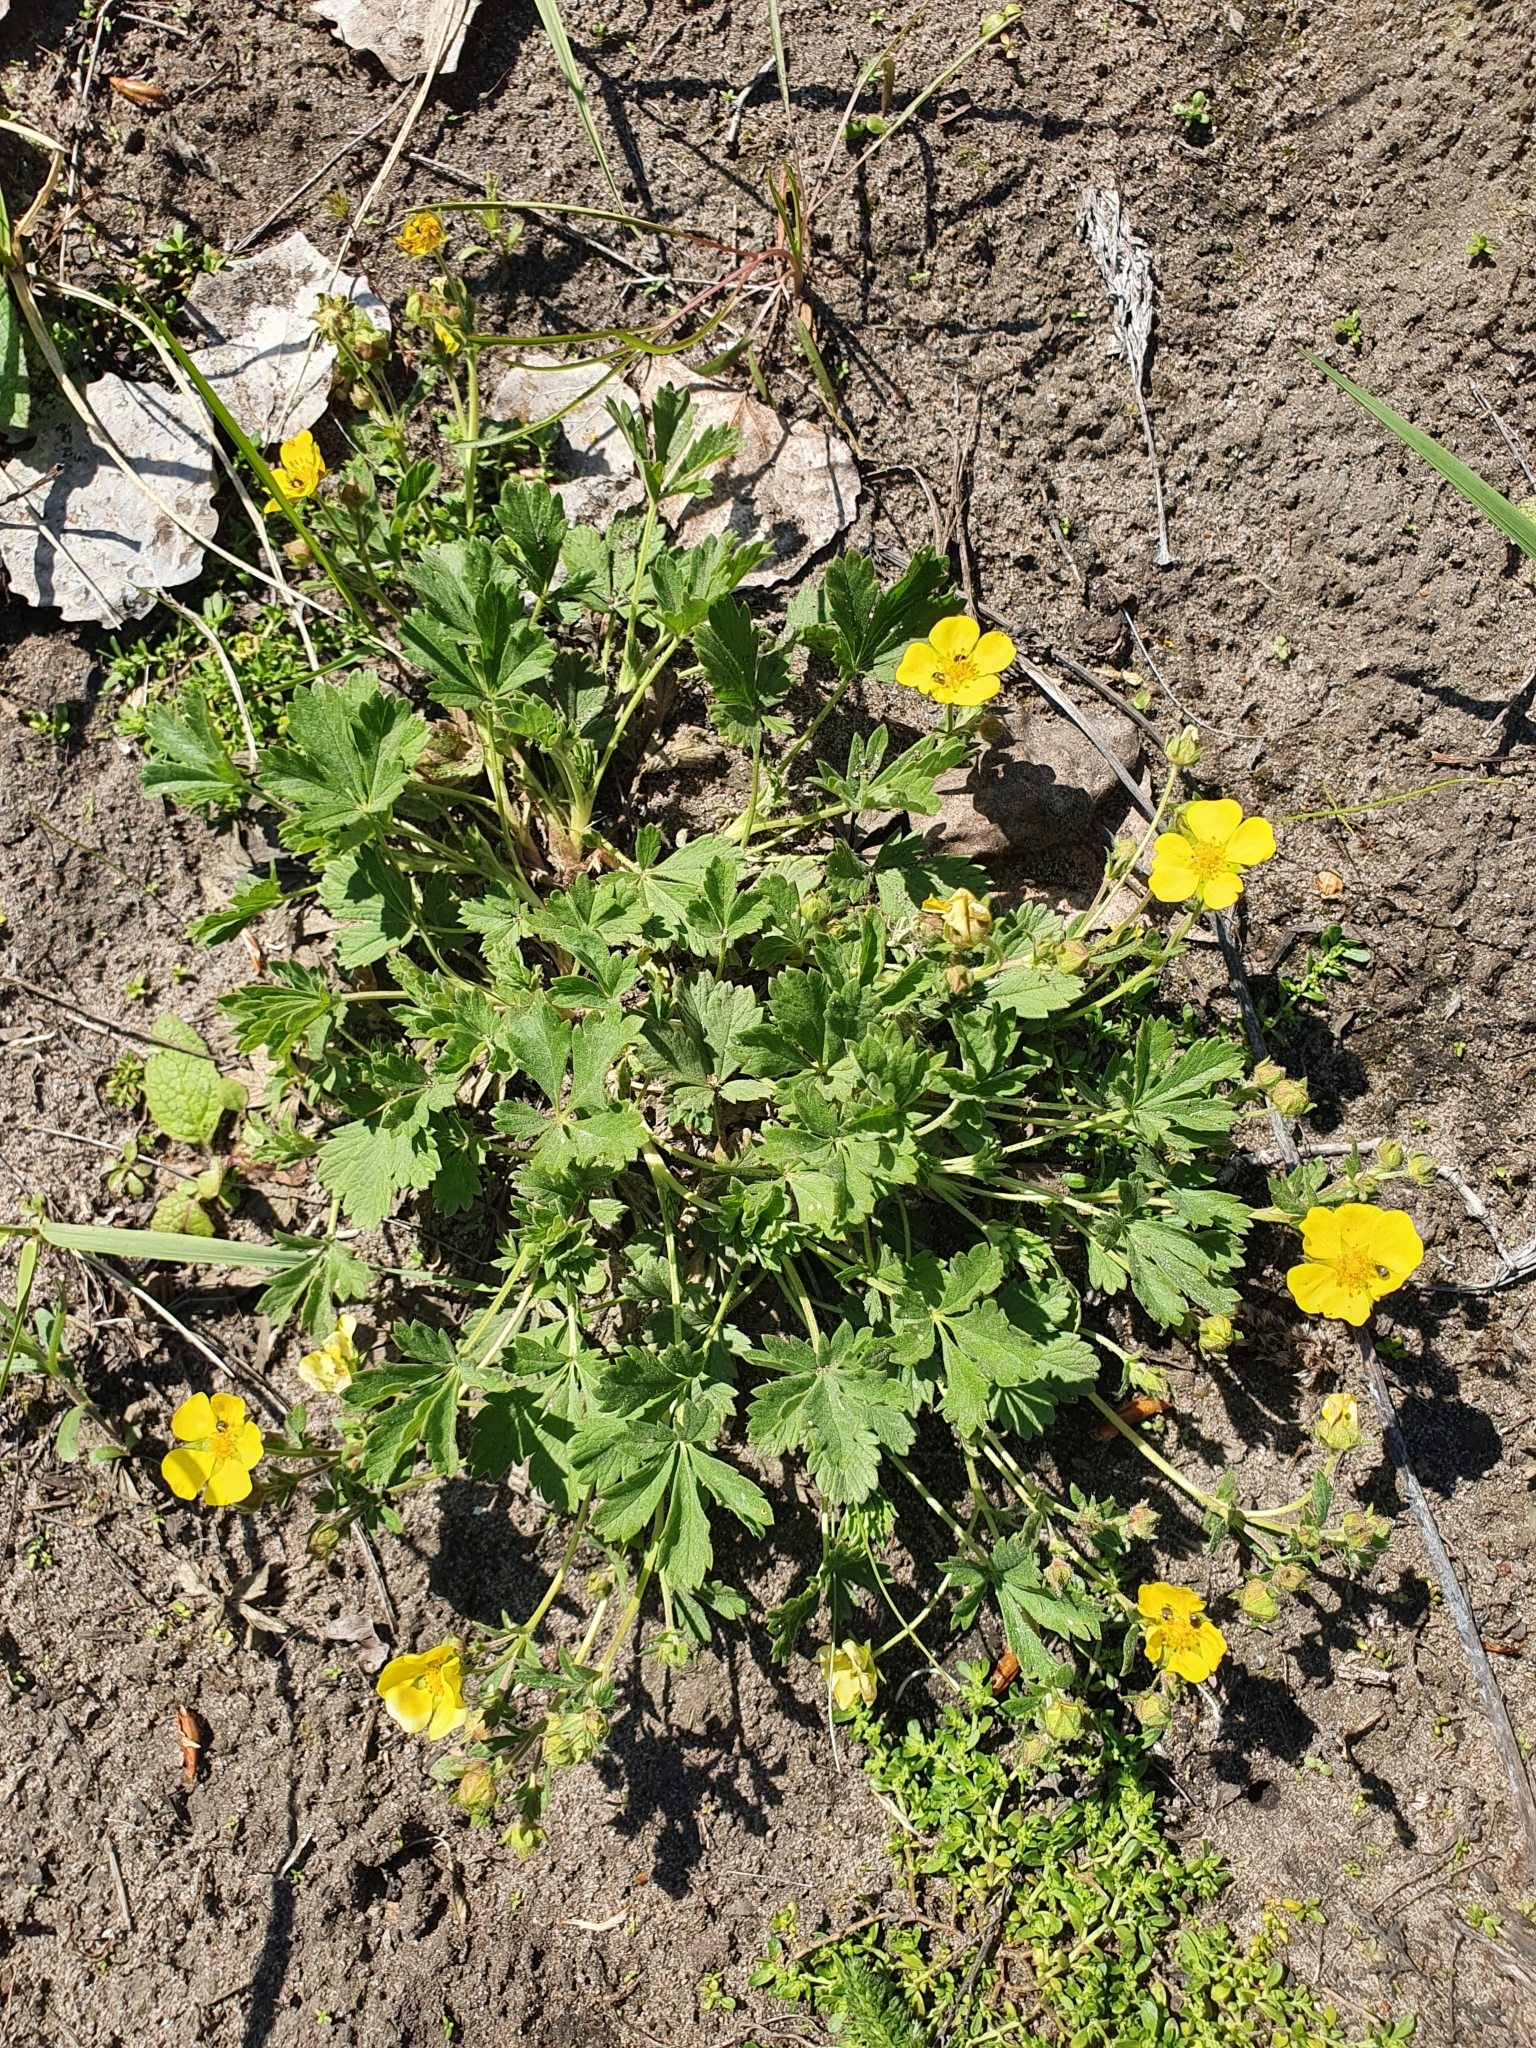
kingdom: Plantae
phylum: Tracheophyta
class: Magnoliopsida
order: Rosales
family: Rosaceae
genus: Potentilla
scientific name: Potentilla incana
